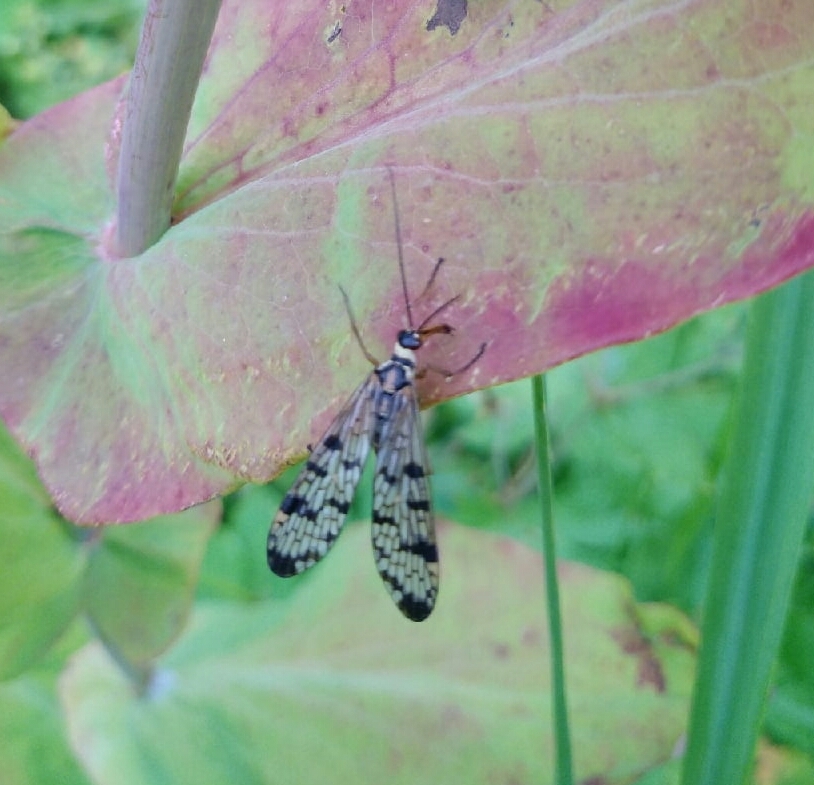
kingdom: Animalia
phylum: Arthropoda
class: Insecta
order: Mecoptera
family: Panorpidae
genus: Panorpa
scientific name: Panorpa communis
